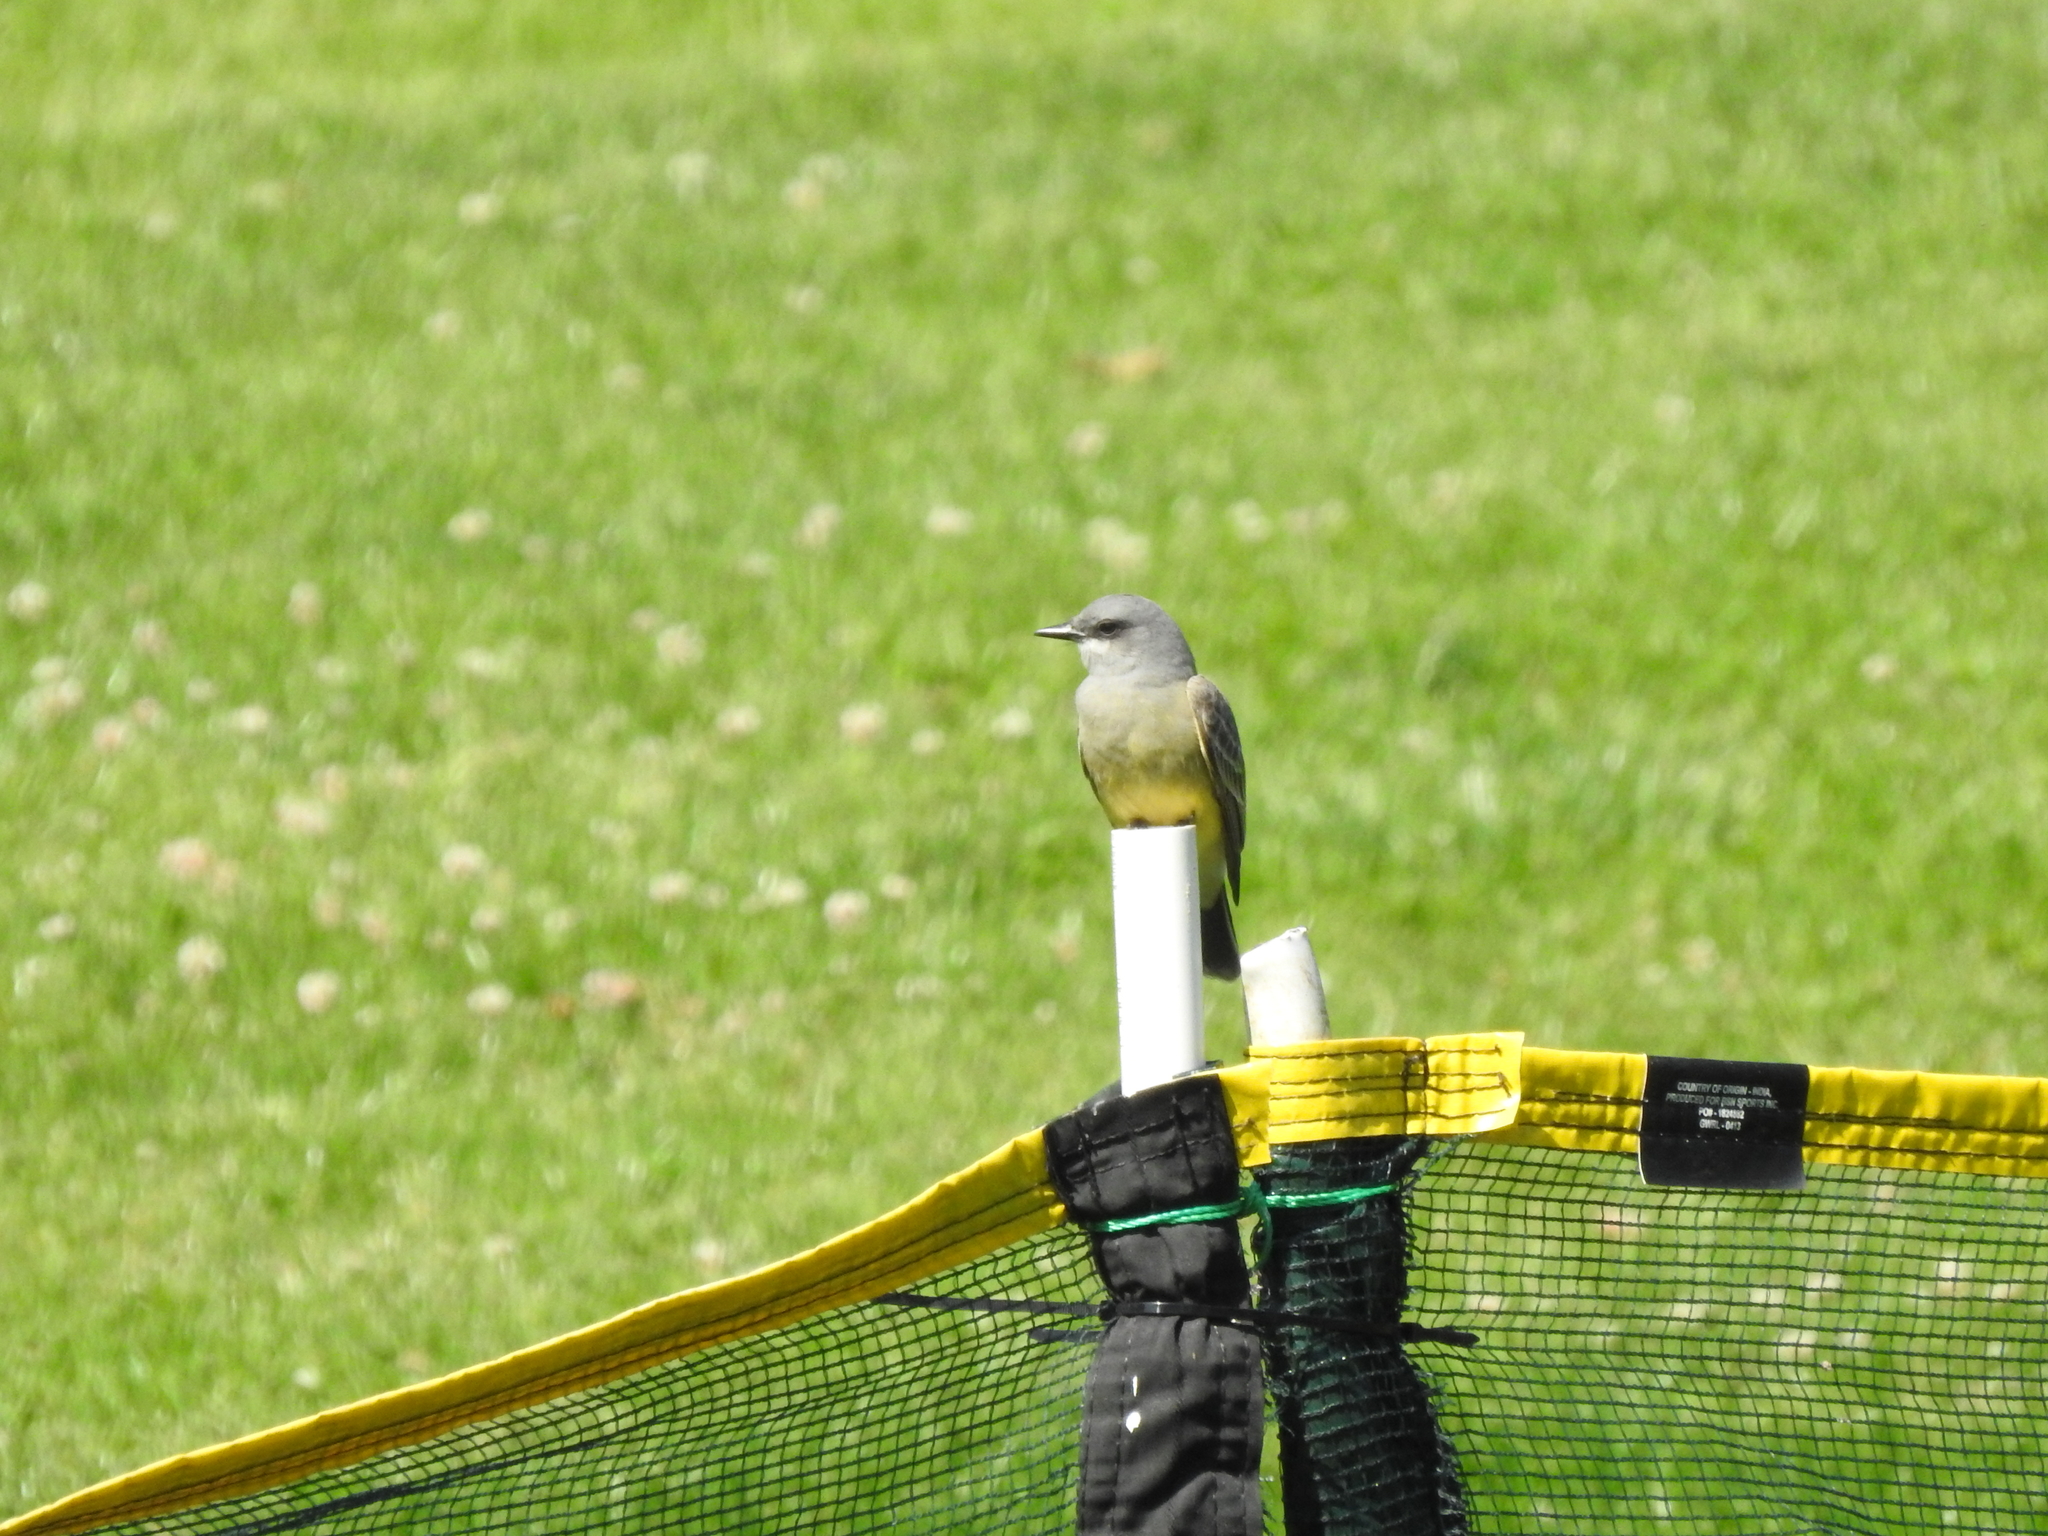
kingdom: Animalia
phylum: Chordata
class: Aves
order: Passeriformes
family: Tyrannidae
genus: Tyrannus
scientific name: Tyrannus vociferans
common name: Cassin's kingbird
